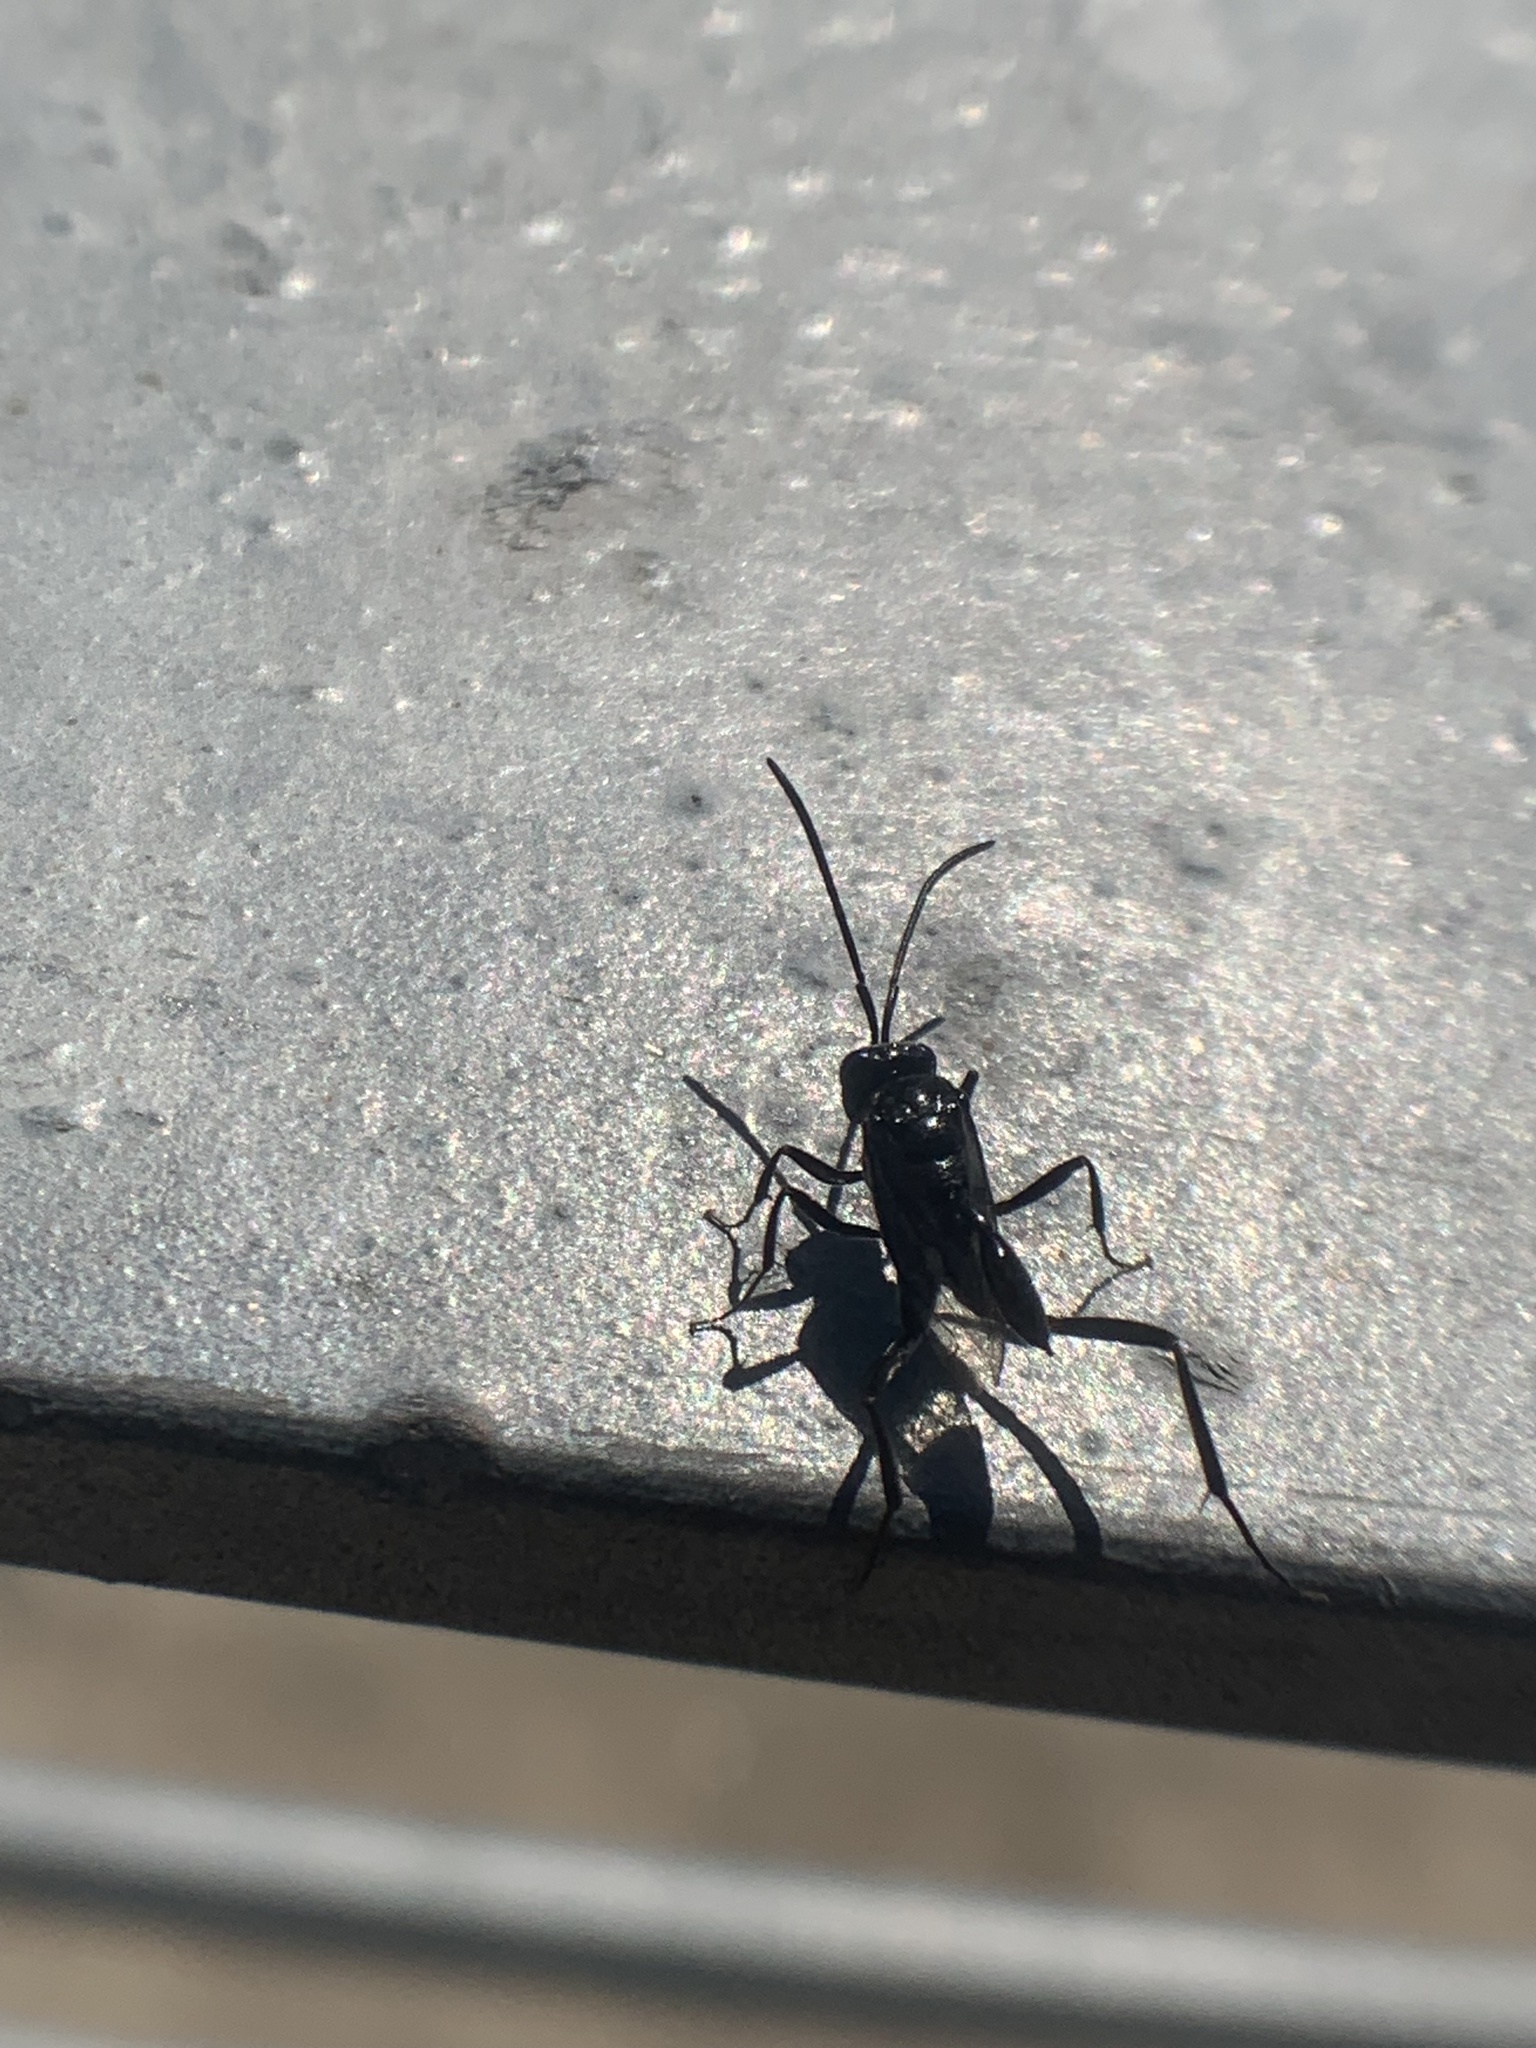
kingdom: Animalia
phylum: Arthropoda
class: Insecta
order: Hymenoptera
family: Evaniidae
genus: Evania
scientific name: Evania appendigaster
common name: Ensign wasp
